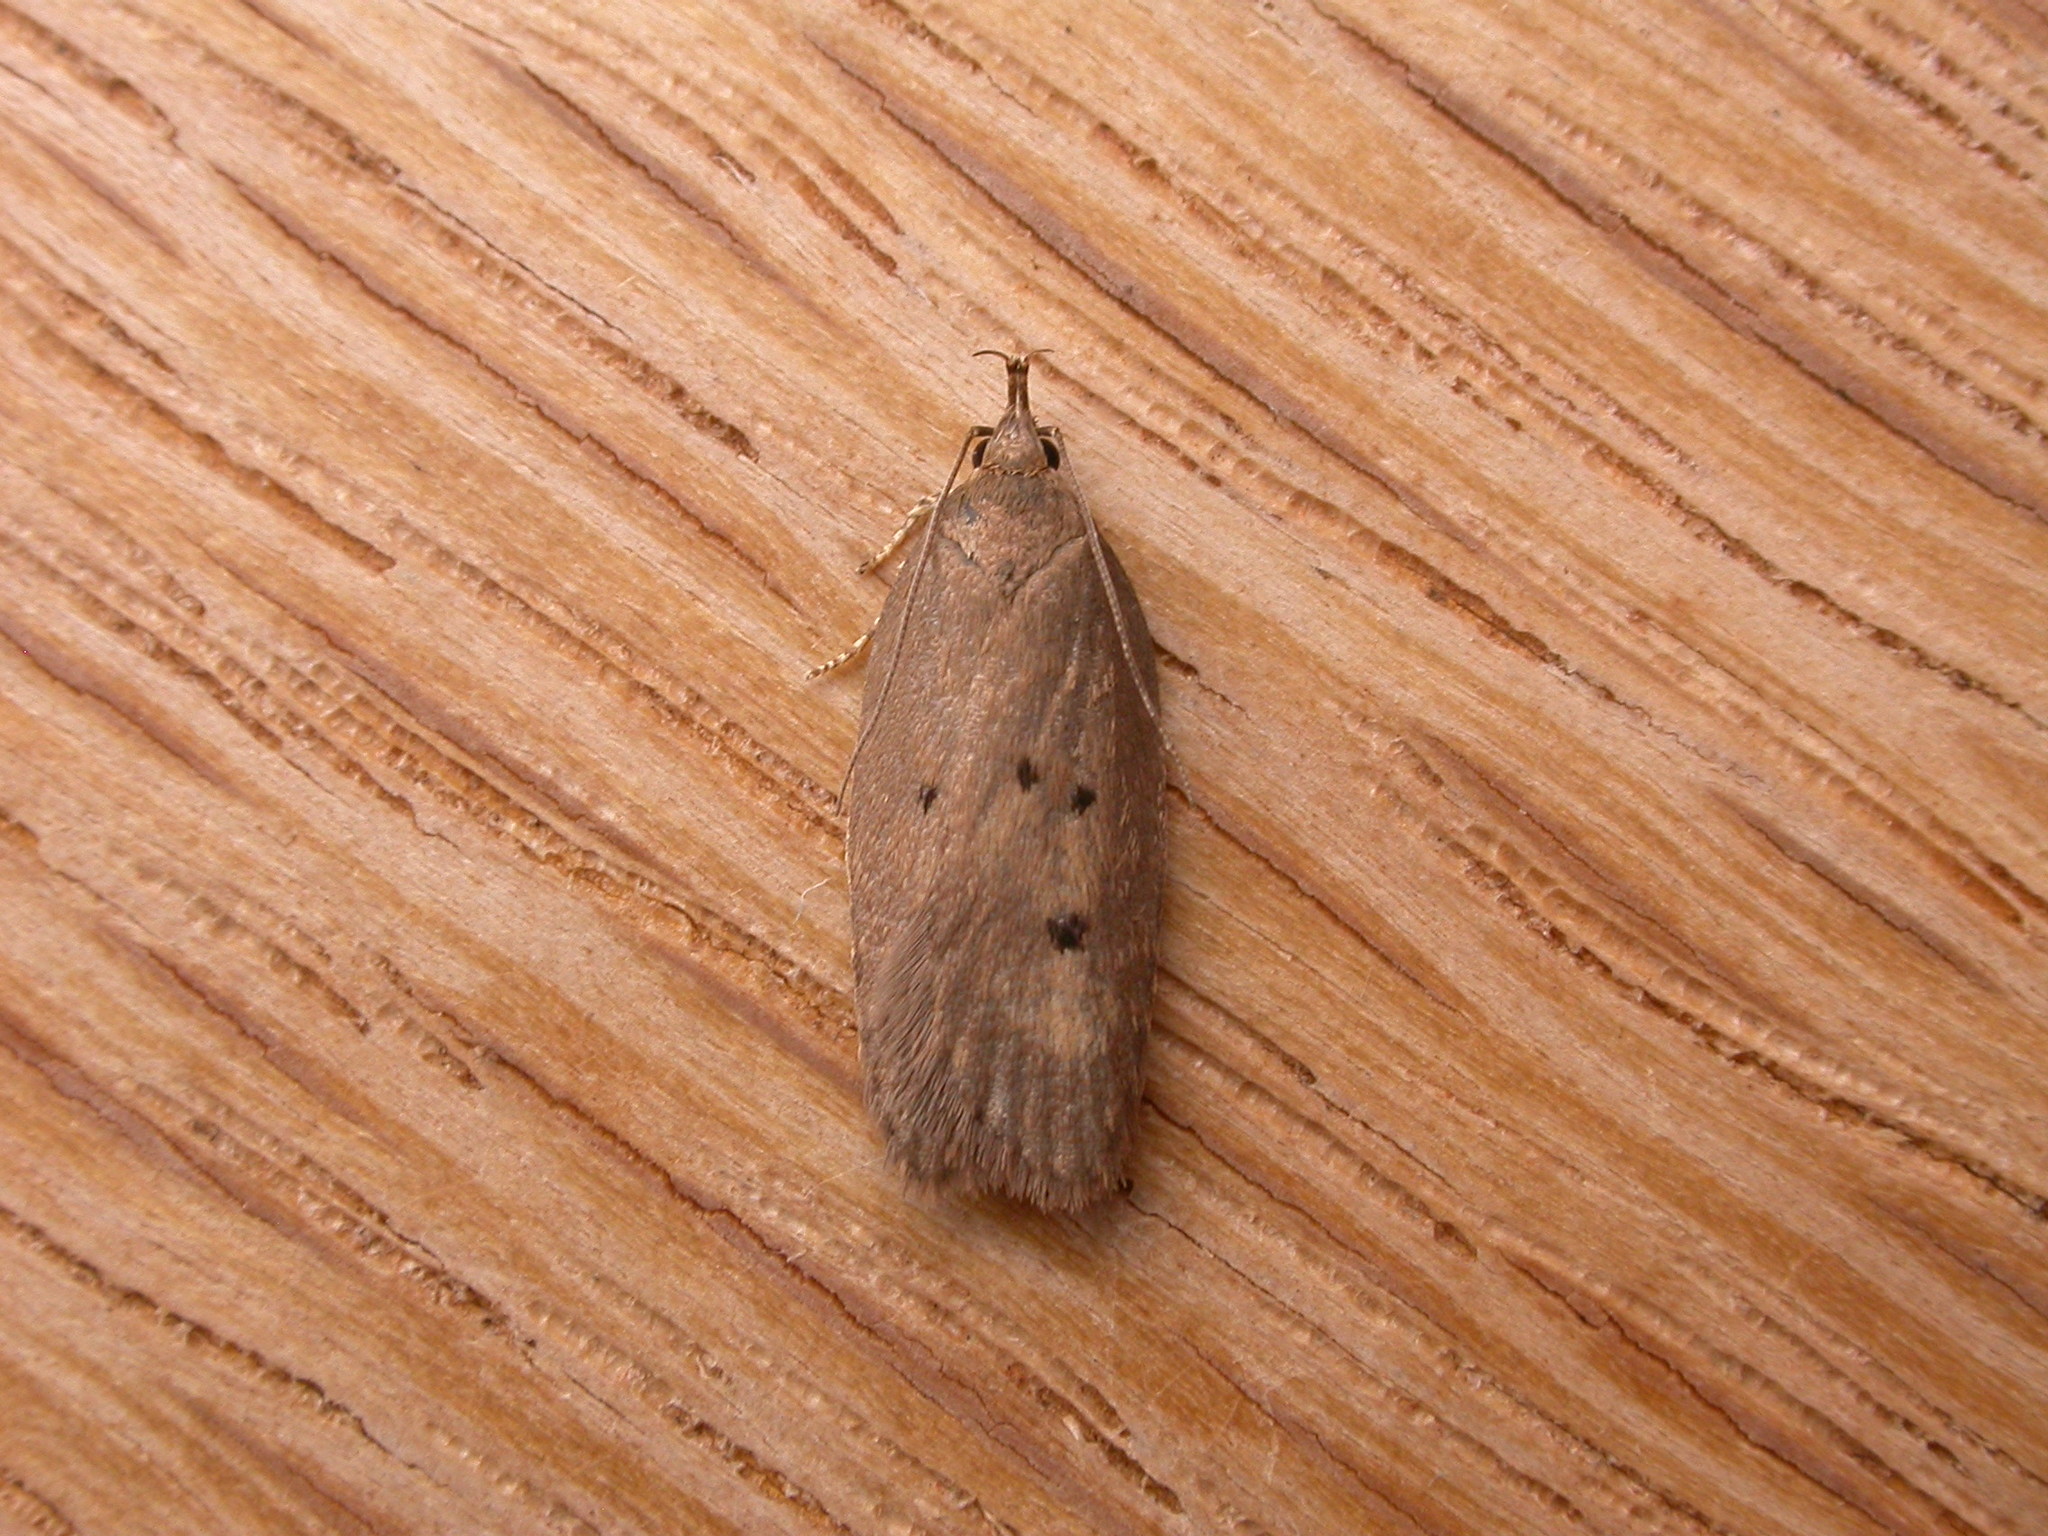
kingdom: Animalia
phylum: Arthropoda
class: Insecta
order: Lepidoptera
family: Depressariidae
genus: Doleromima
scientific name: Doleromima hypoxantha
